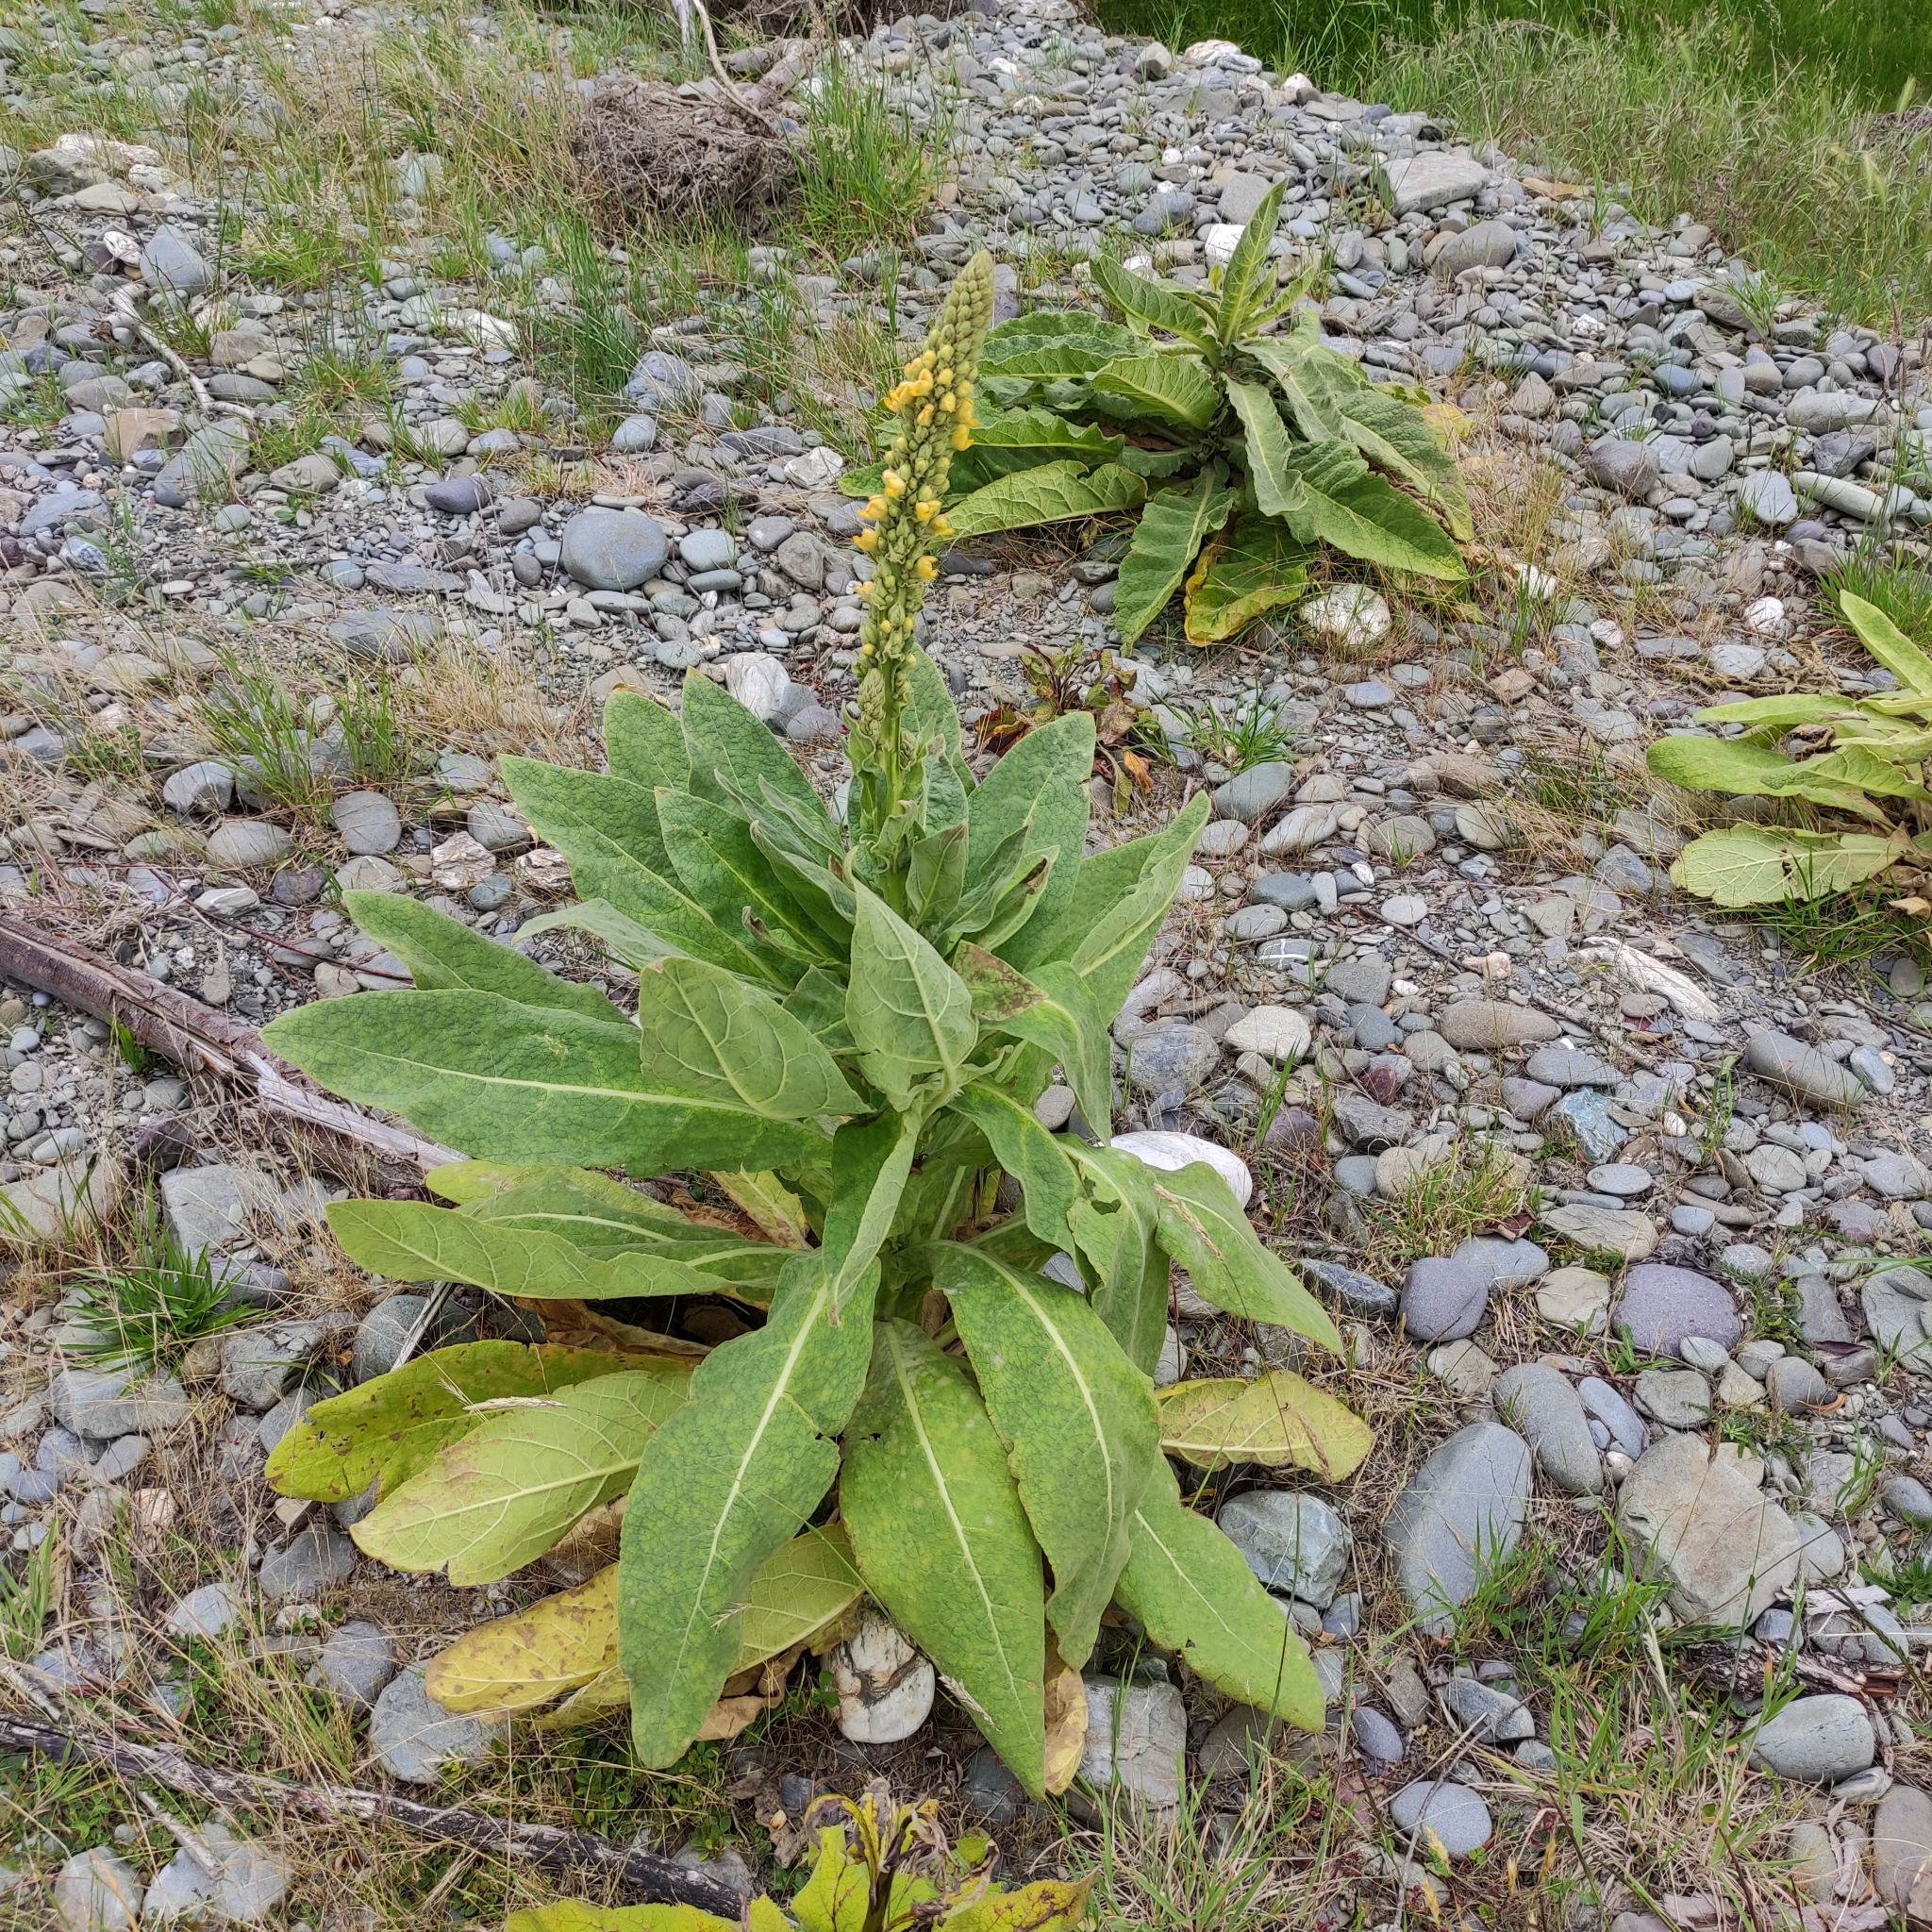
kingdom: Plantae
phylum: Tracheophyta
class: Magnoliopsida
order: Lamiales
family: Scrophulariaceae
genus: Verbascum
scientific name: Verbascum thapsus
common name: Common mullein
